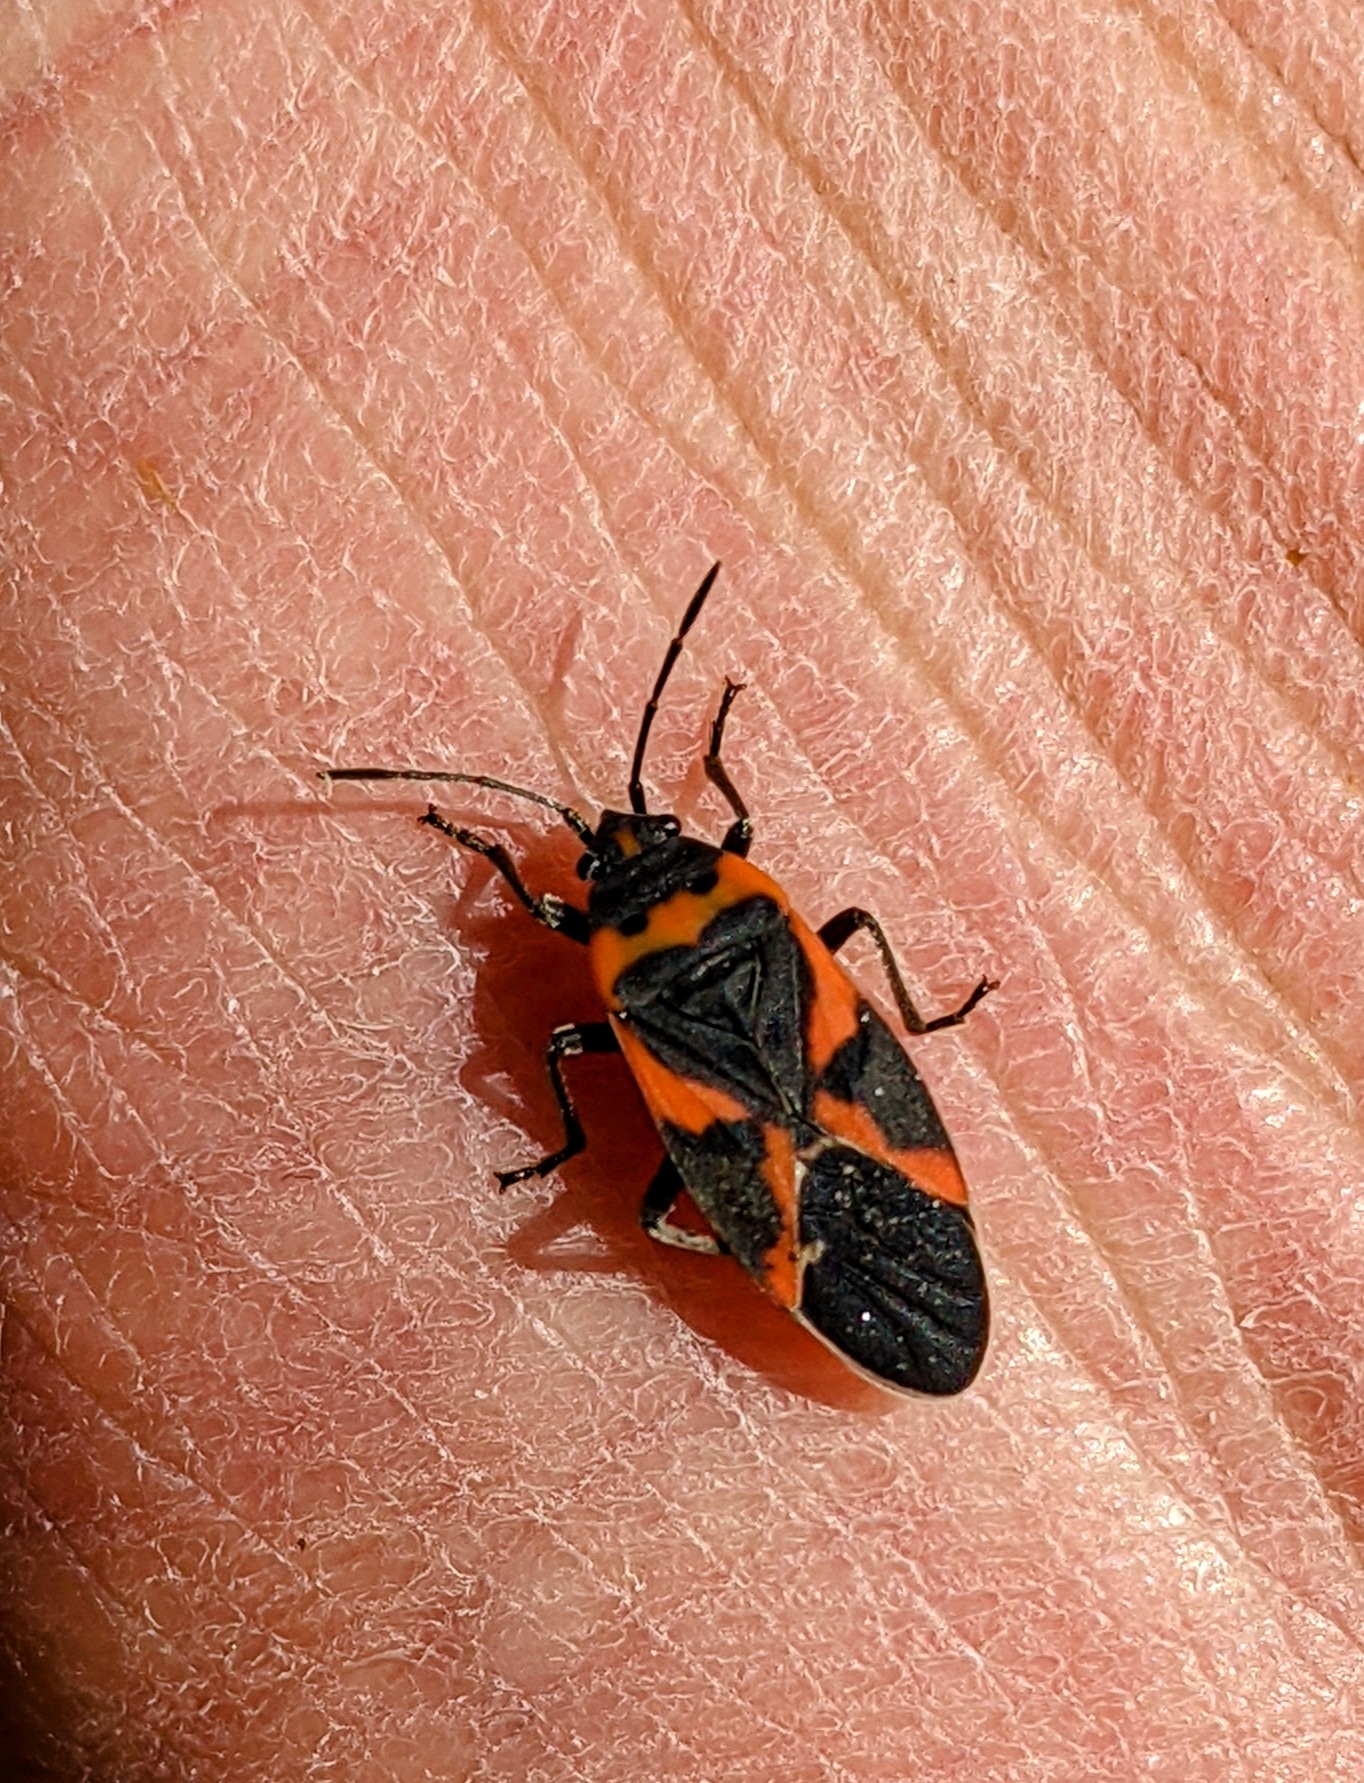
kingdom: Animalia
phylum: Arthropoda
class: Insecta
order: Hemiptera
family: Lygaeidae
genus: Lygaeus
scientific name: Lygaeus kalmii
